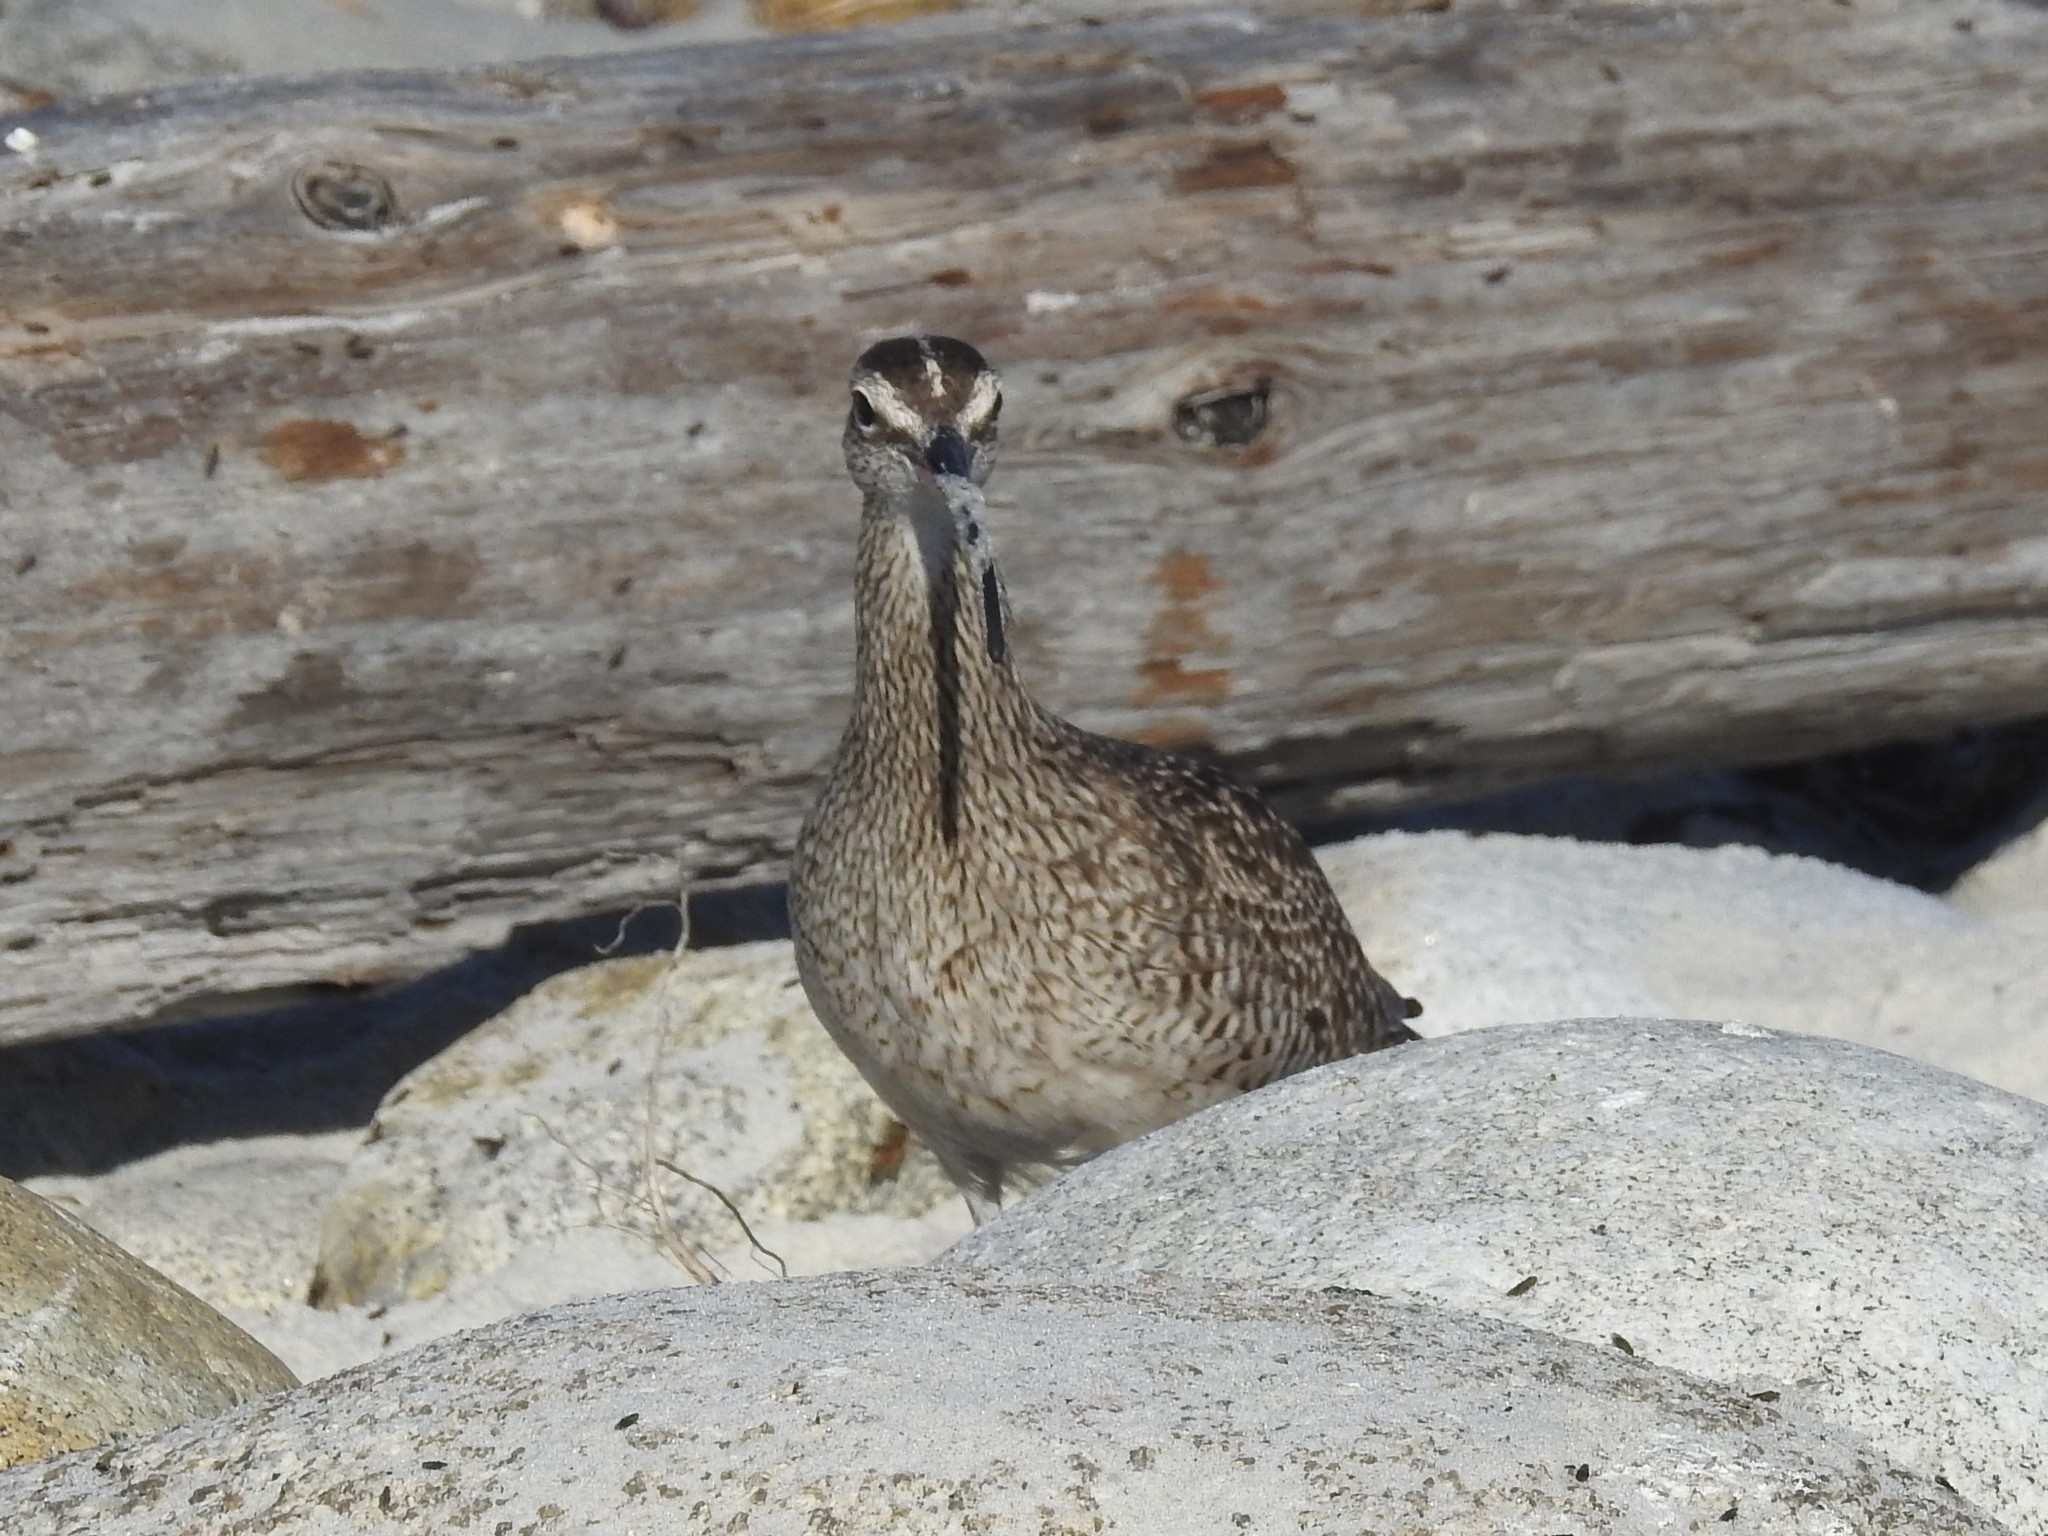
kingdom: Animalia
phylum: Chordata
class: Aves
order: Charadriiformes
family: Scolopacidae
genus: Numenius
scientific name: Numenius phaeopus
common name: Whimbrel
